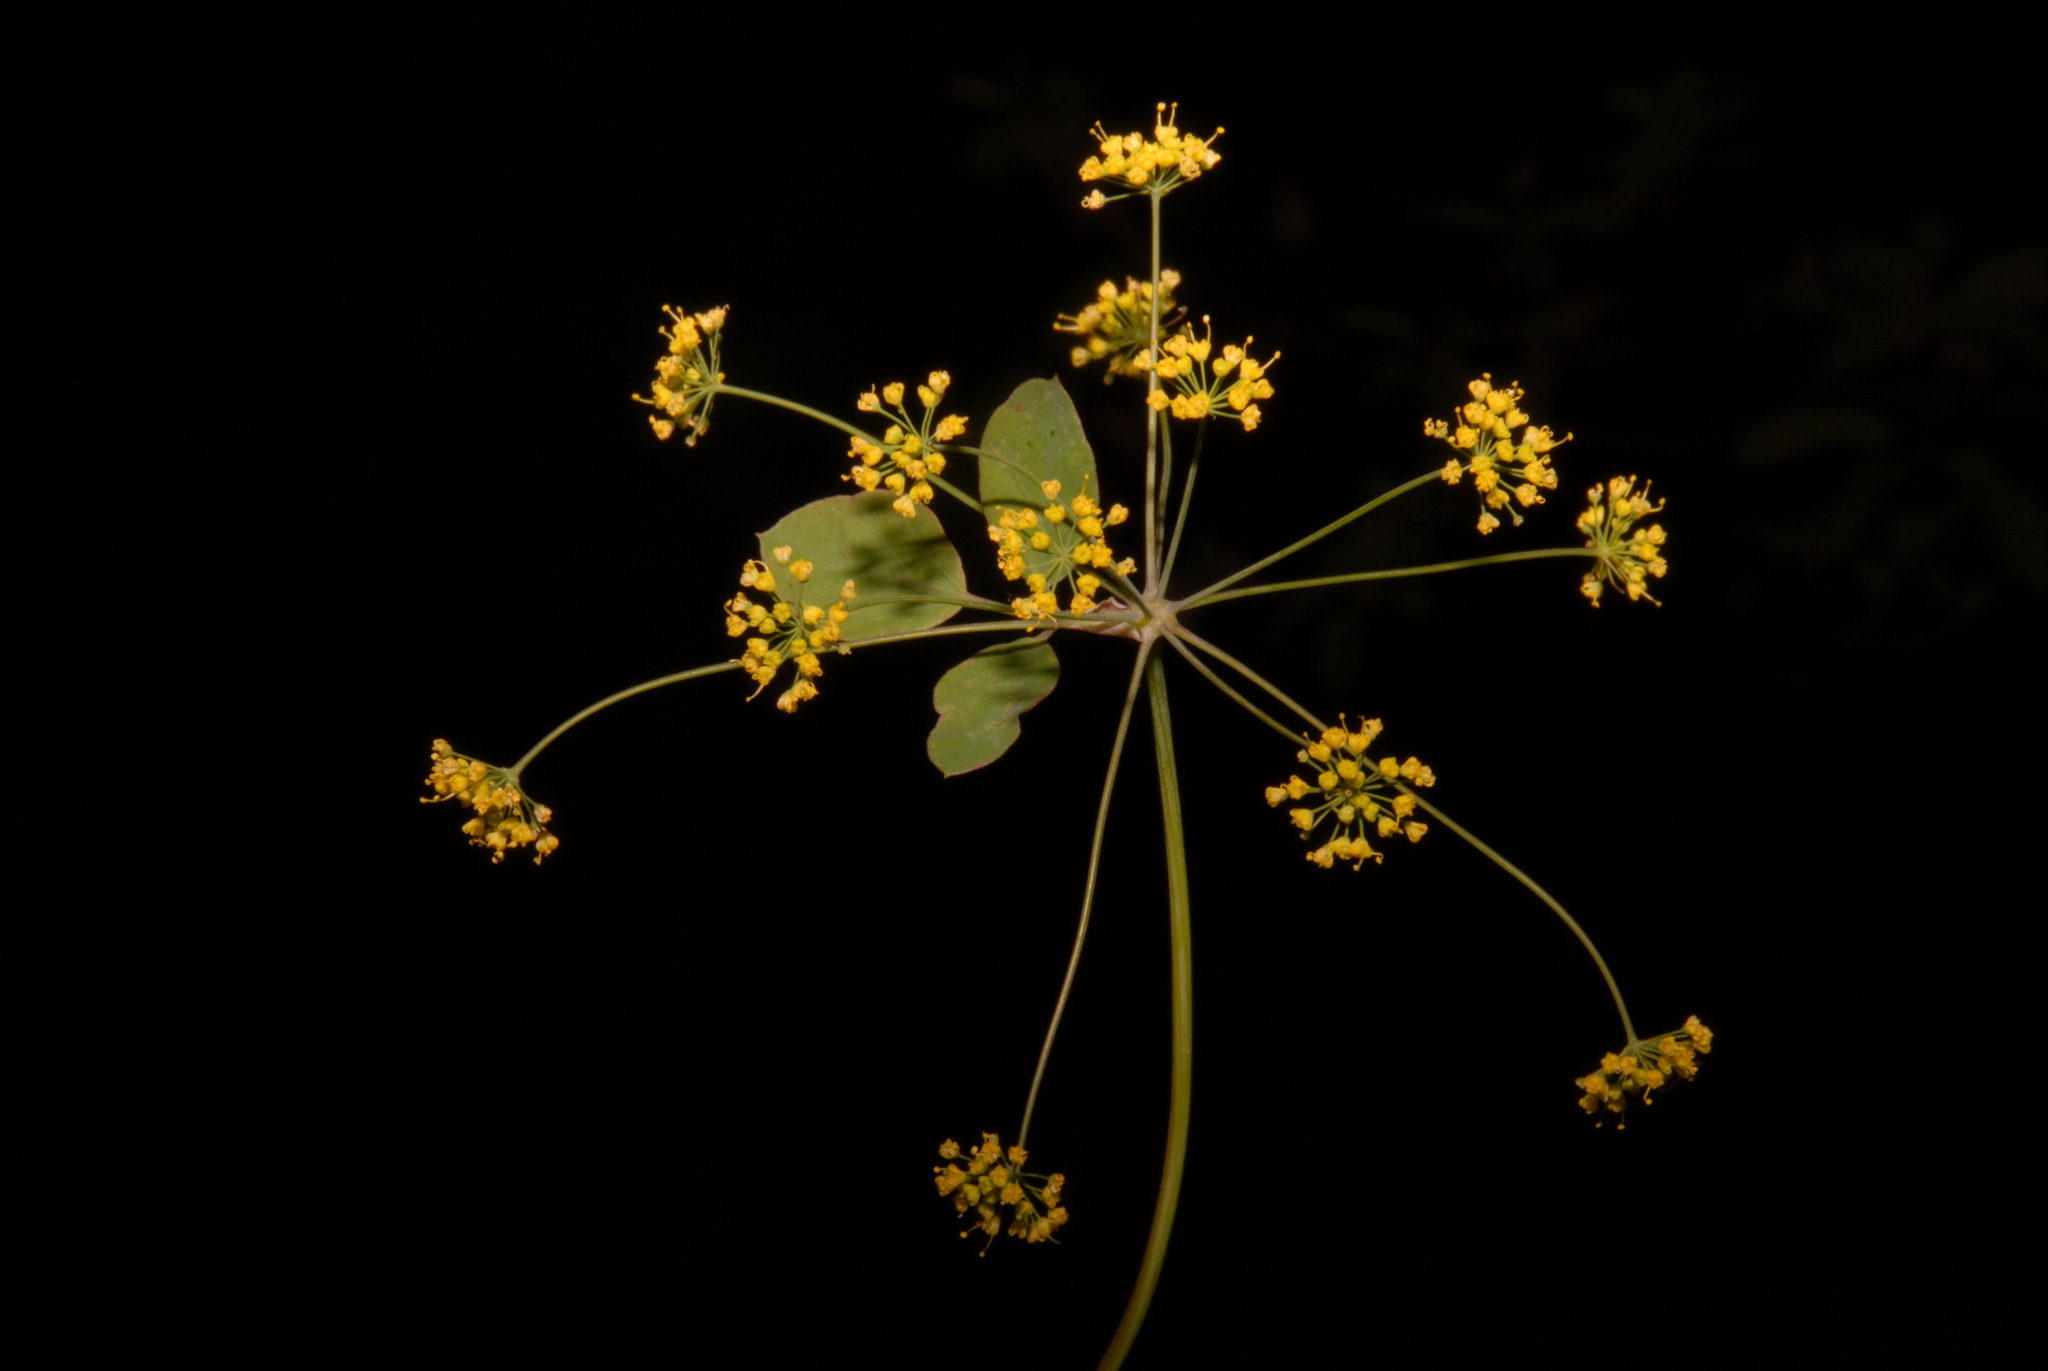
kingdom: Plantae
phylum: Tracheophyta
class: Magnoliopsida
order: Apiales
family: Apiaceae
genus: Taenidia
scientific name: Taenidia integerrima
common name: Golden alexander
